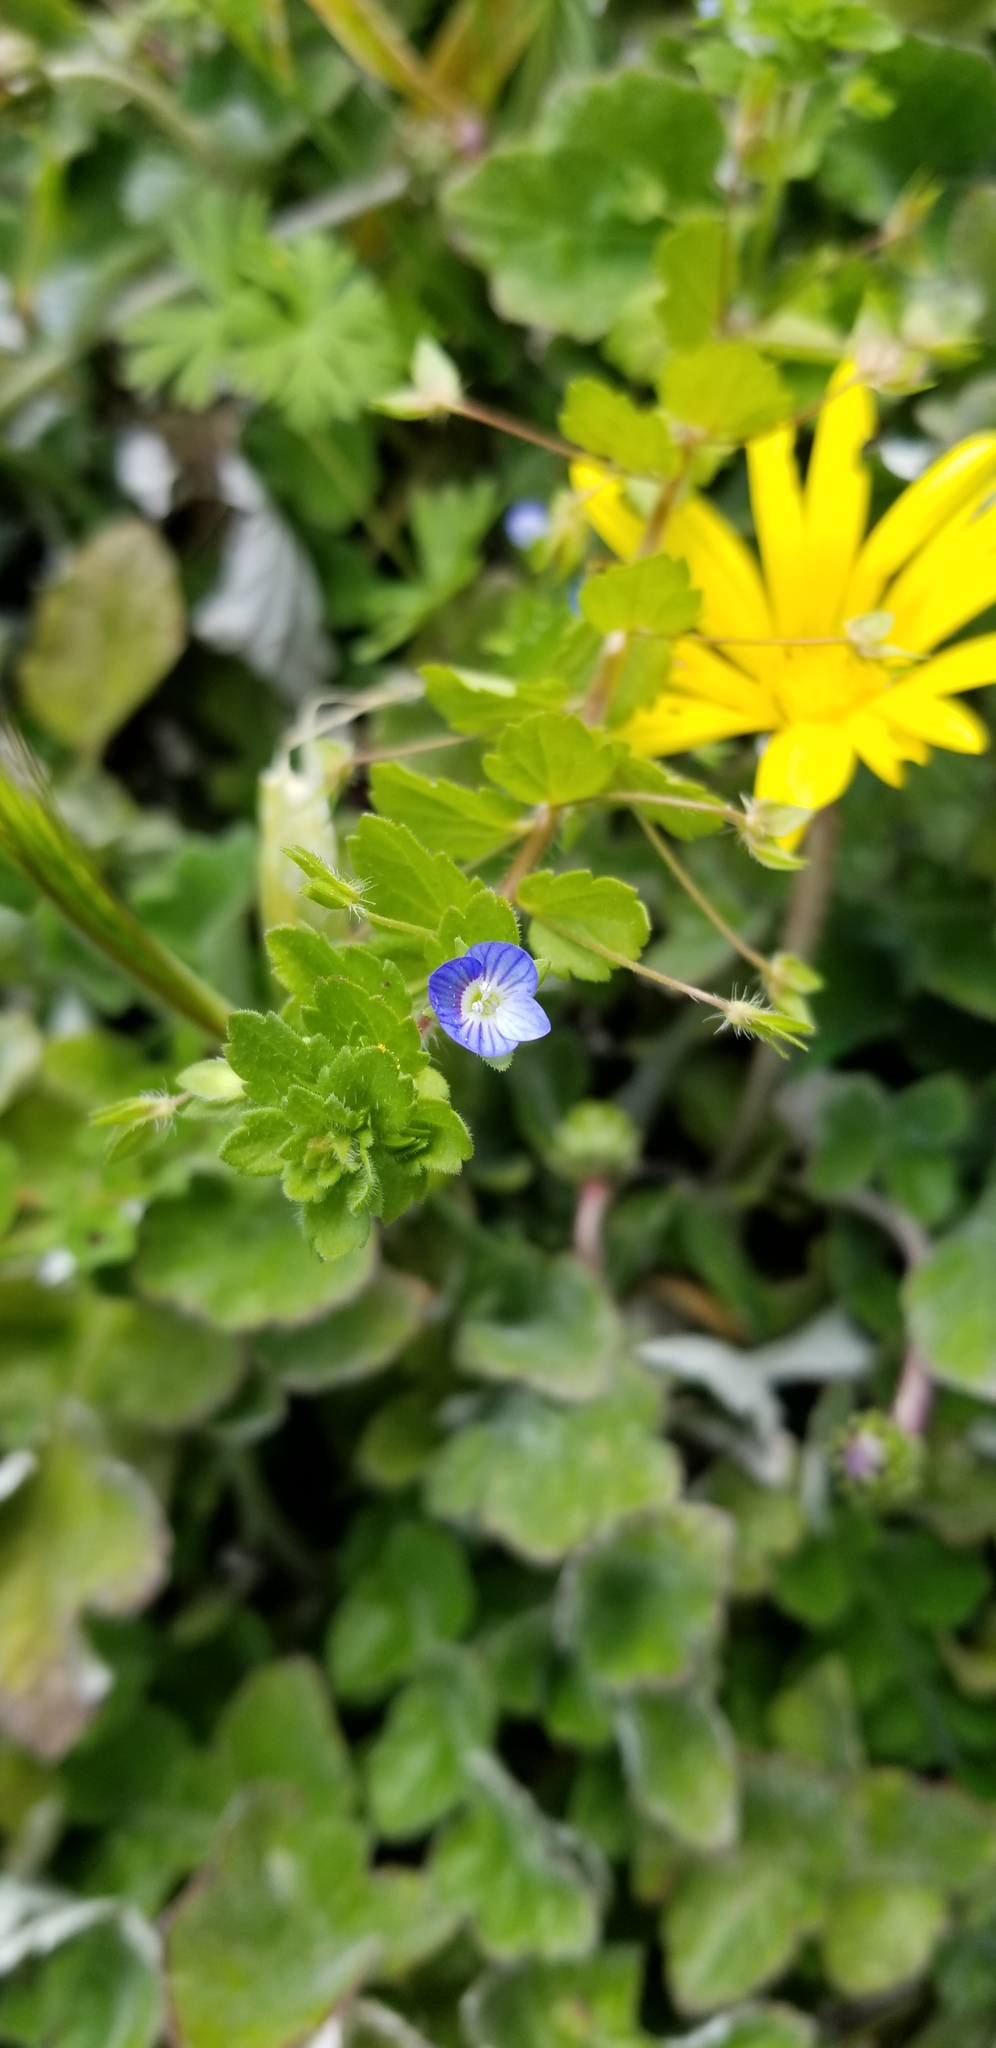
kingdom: Plantae
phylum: Tracheophyta
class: Magnoliopsida
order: Lamiales
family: Plantaginaceae
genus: Veronica
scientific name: Veronica persica
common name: Common field-speedwell
